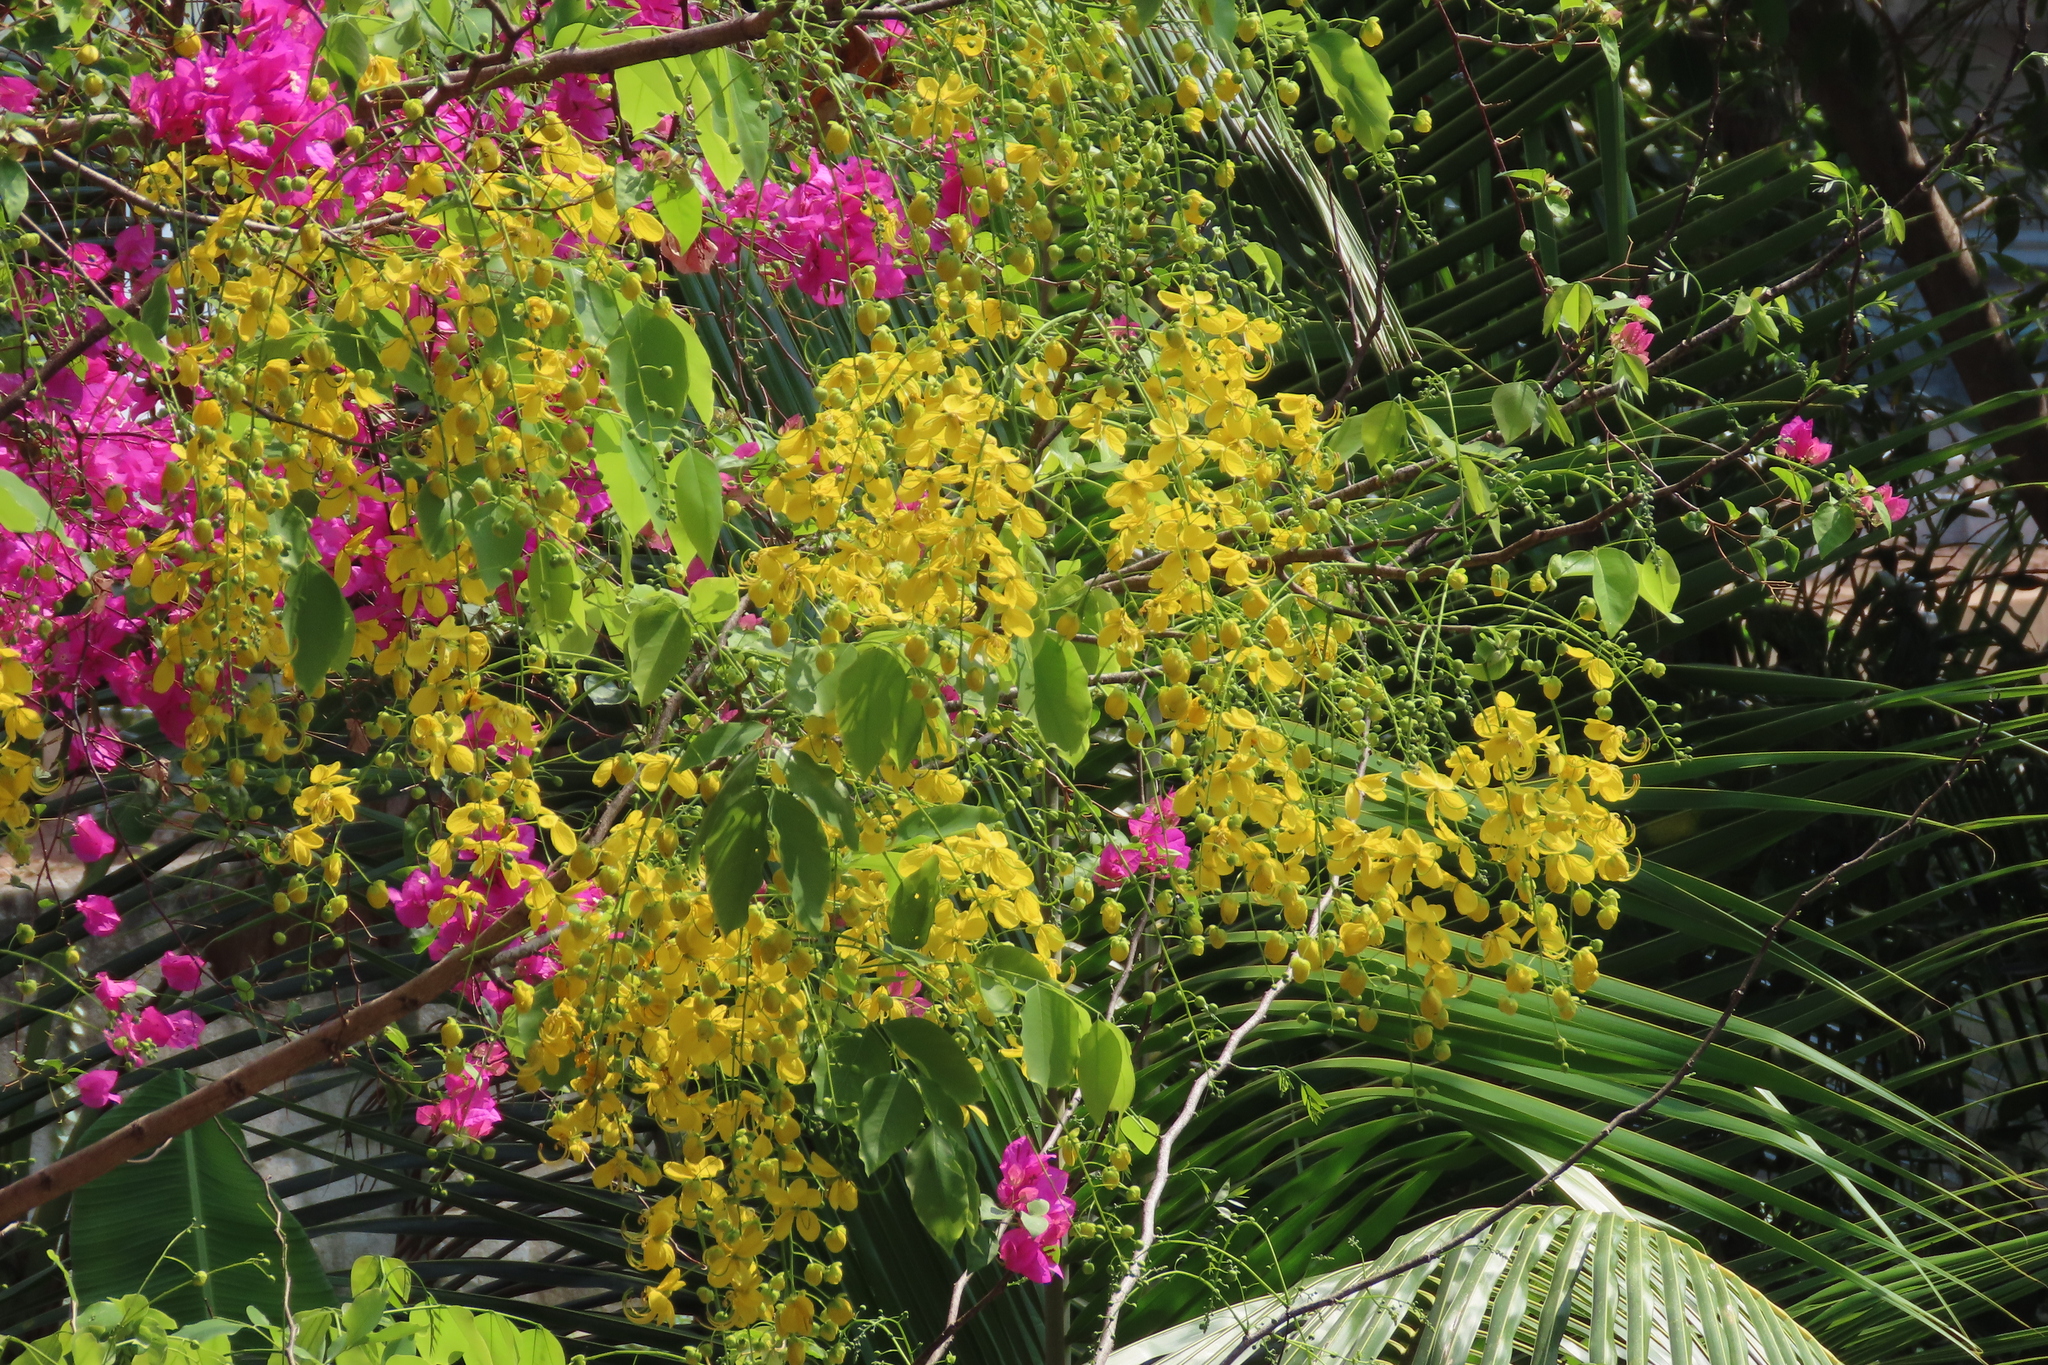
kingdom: Plantae
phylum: Tracheophyta
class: Magnoliopsida
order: Fabales
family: Fabaceae
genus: Cassia
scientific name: Cassia fistula
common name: Golden shower
